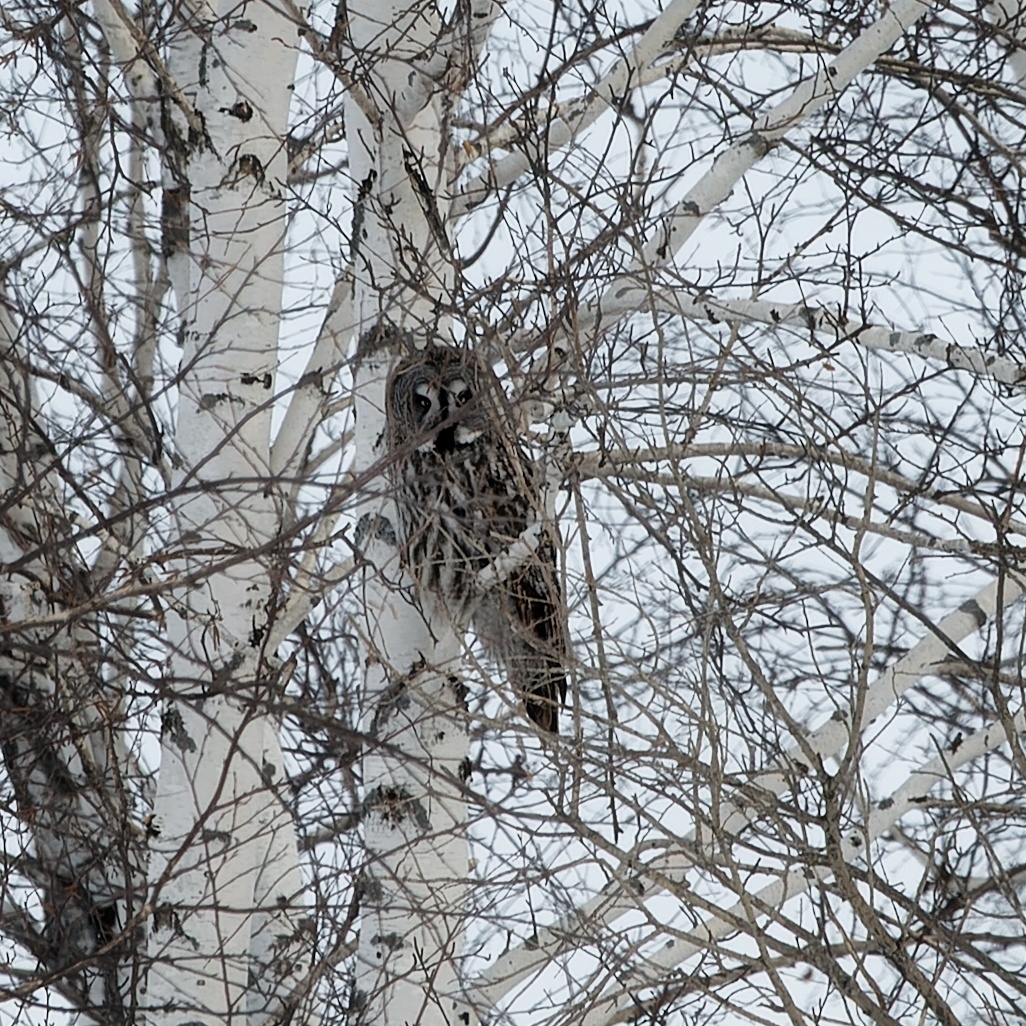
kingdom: Animalia
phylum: Chordata
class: Aves
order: Strigiformes
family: Strigidae
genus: Strix
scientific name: Strix nebulosa
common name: Great grey owl
